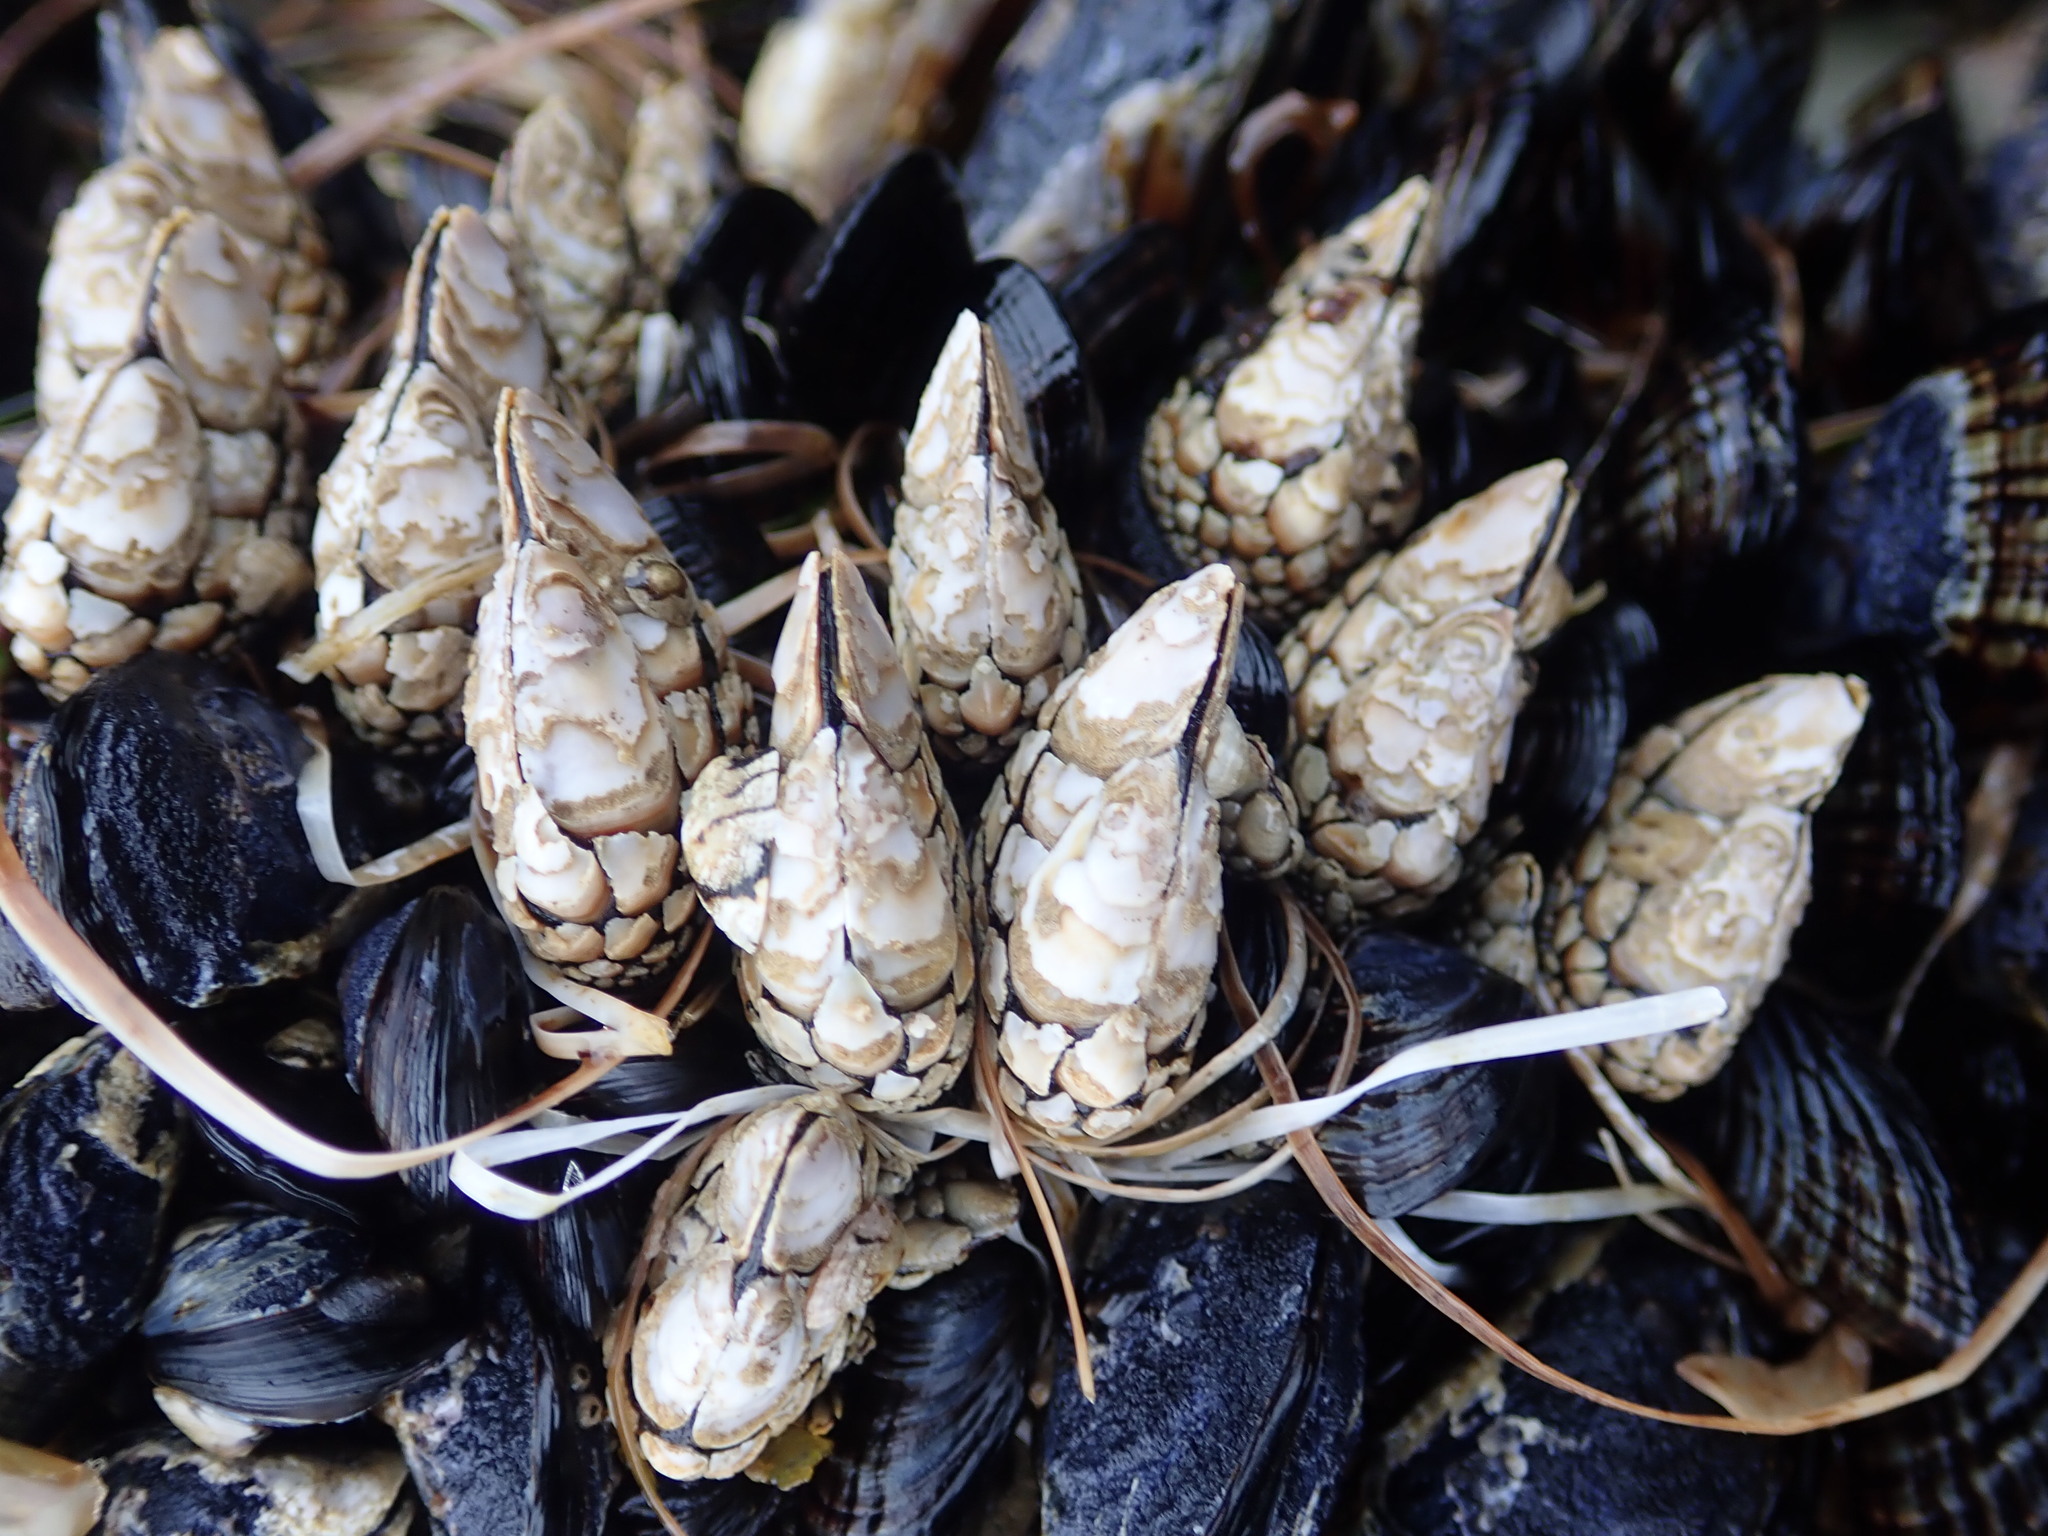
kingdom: Animalia
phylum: Arthropoda
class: Maxillopoda
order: Pedunculata
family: Pollicipedidae
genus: Pollicipes
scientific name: Pollicipes polymerus
